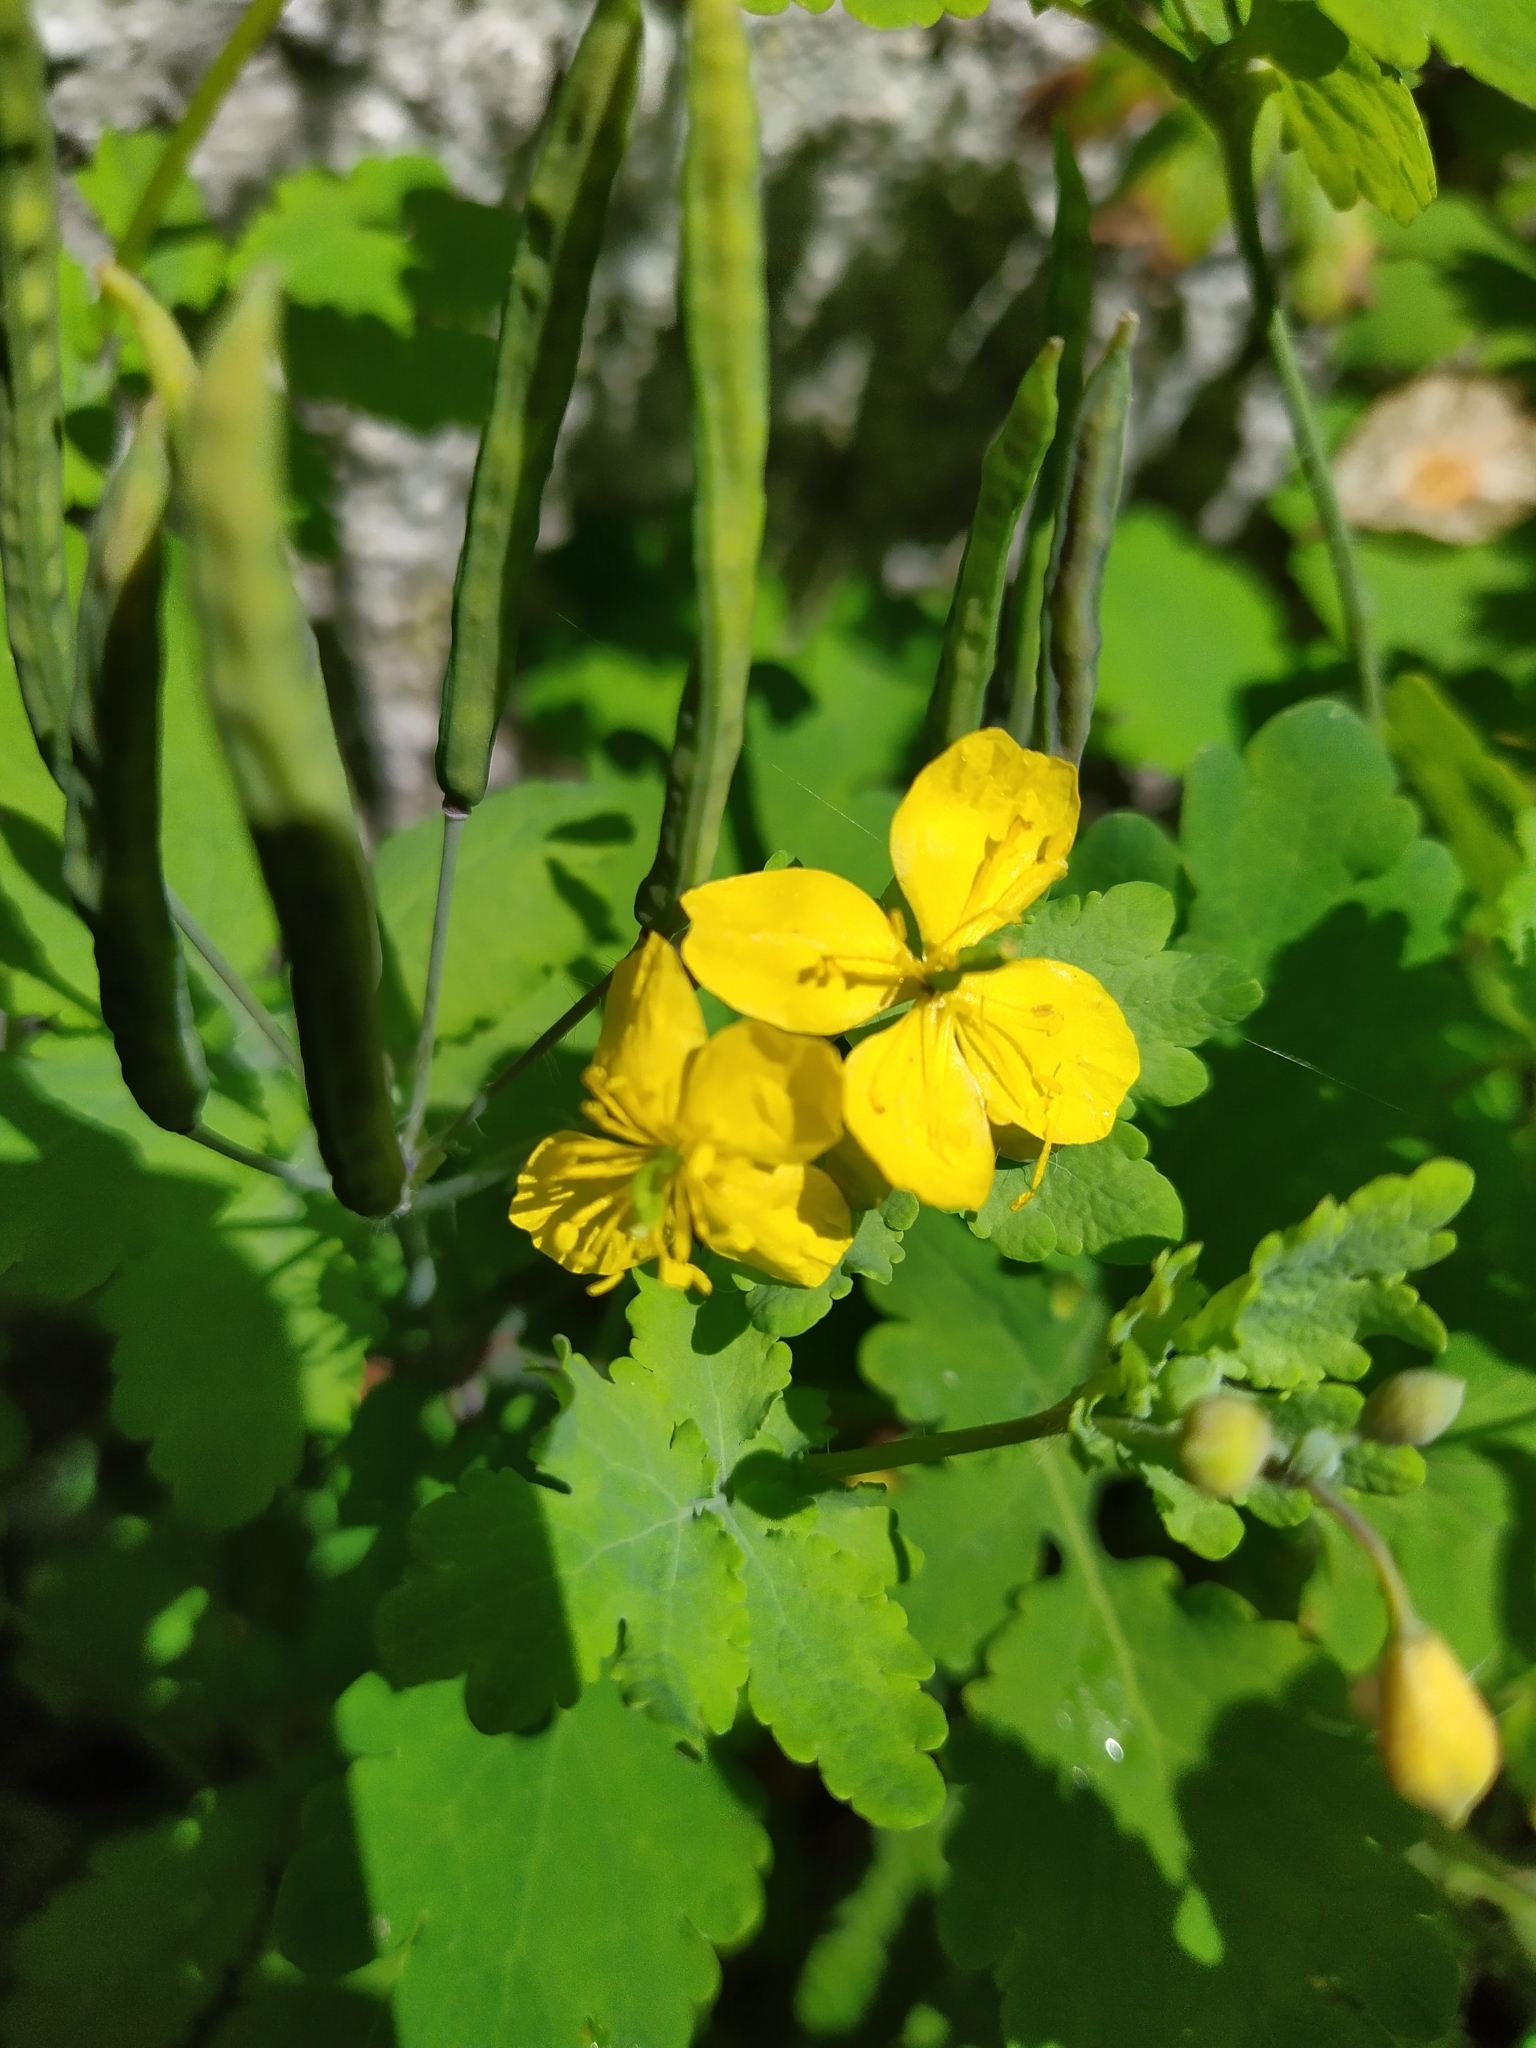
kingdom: Plantae
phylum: Tracheophyta
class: Magnoliopsida
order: Ranunculales
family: Papaveraceae
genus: Chelidonium
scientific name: Chelidonium majus
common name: Greater celandine
